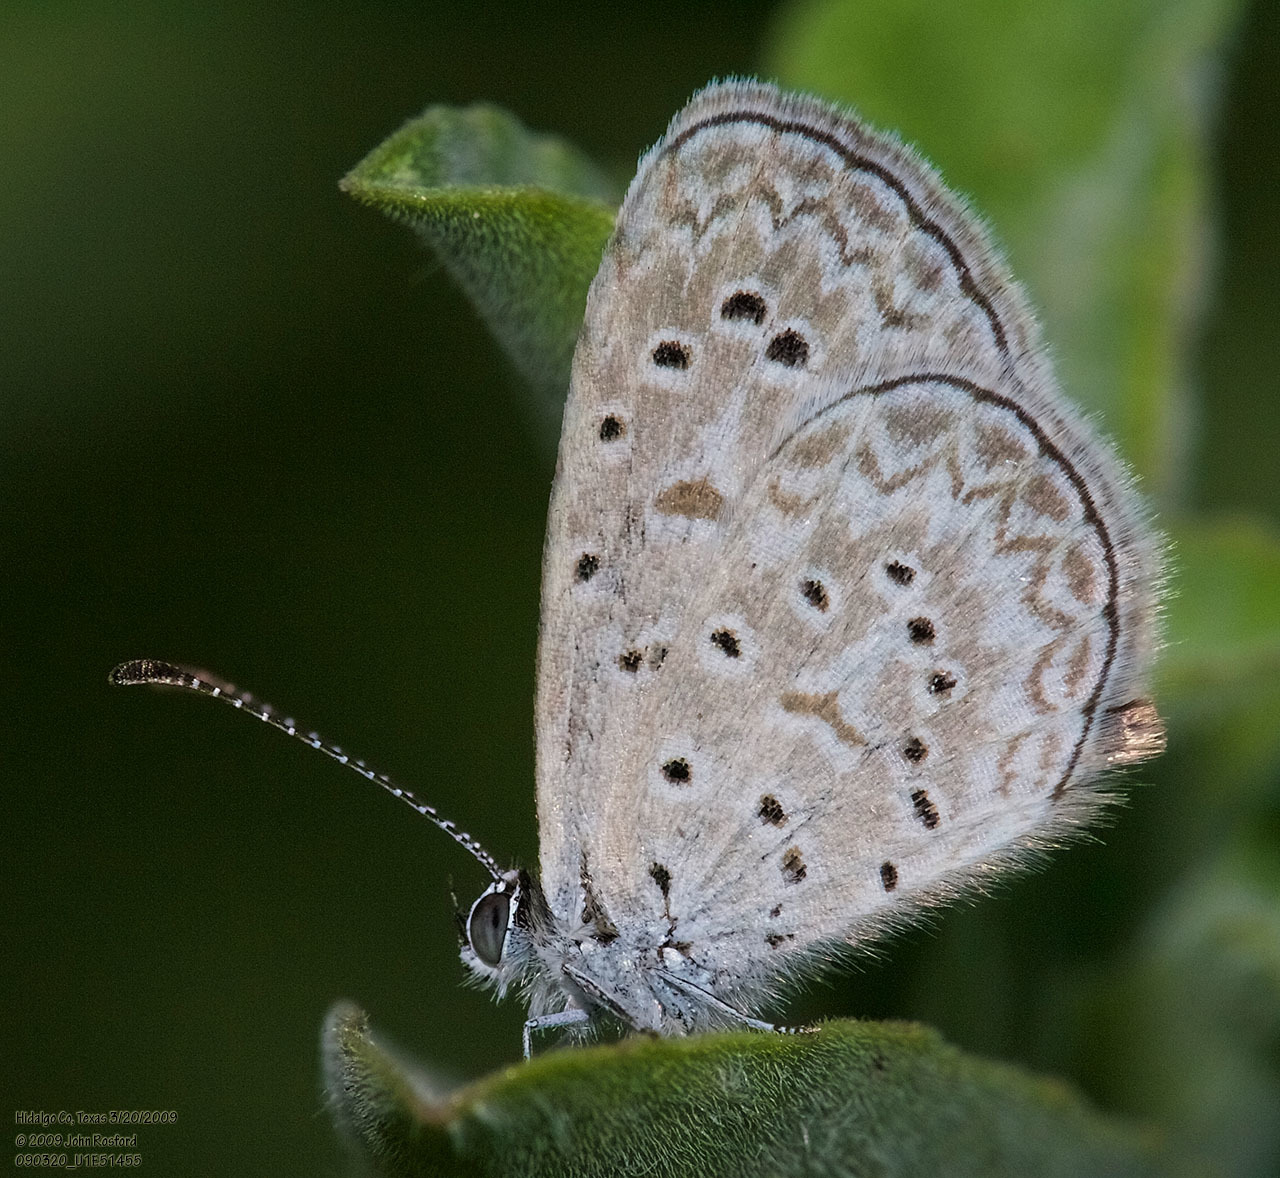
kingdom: Animalia
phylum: Arthropoda
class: Insecta
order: Lepidoptera
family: Lycaenidae
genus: Lycaena
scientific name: Lycaena cyna
